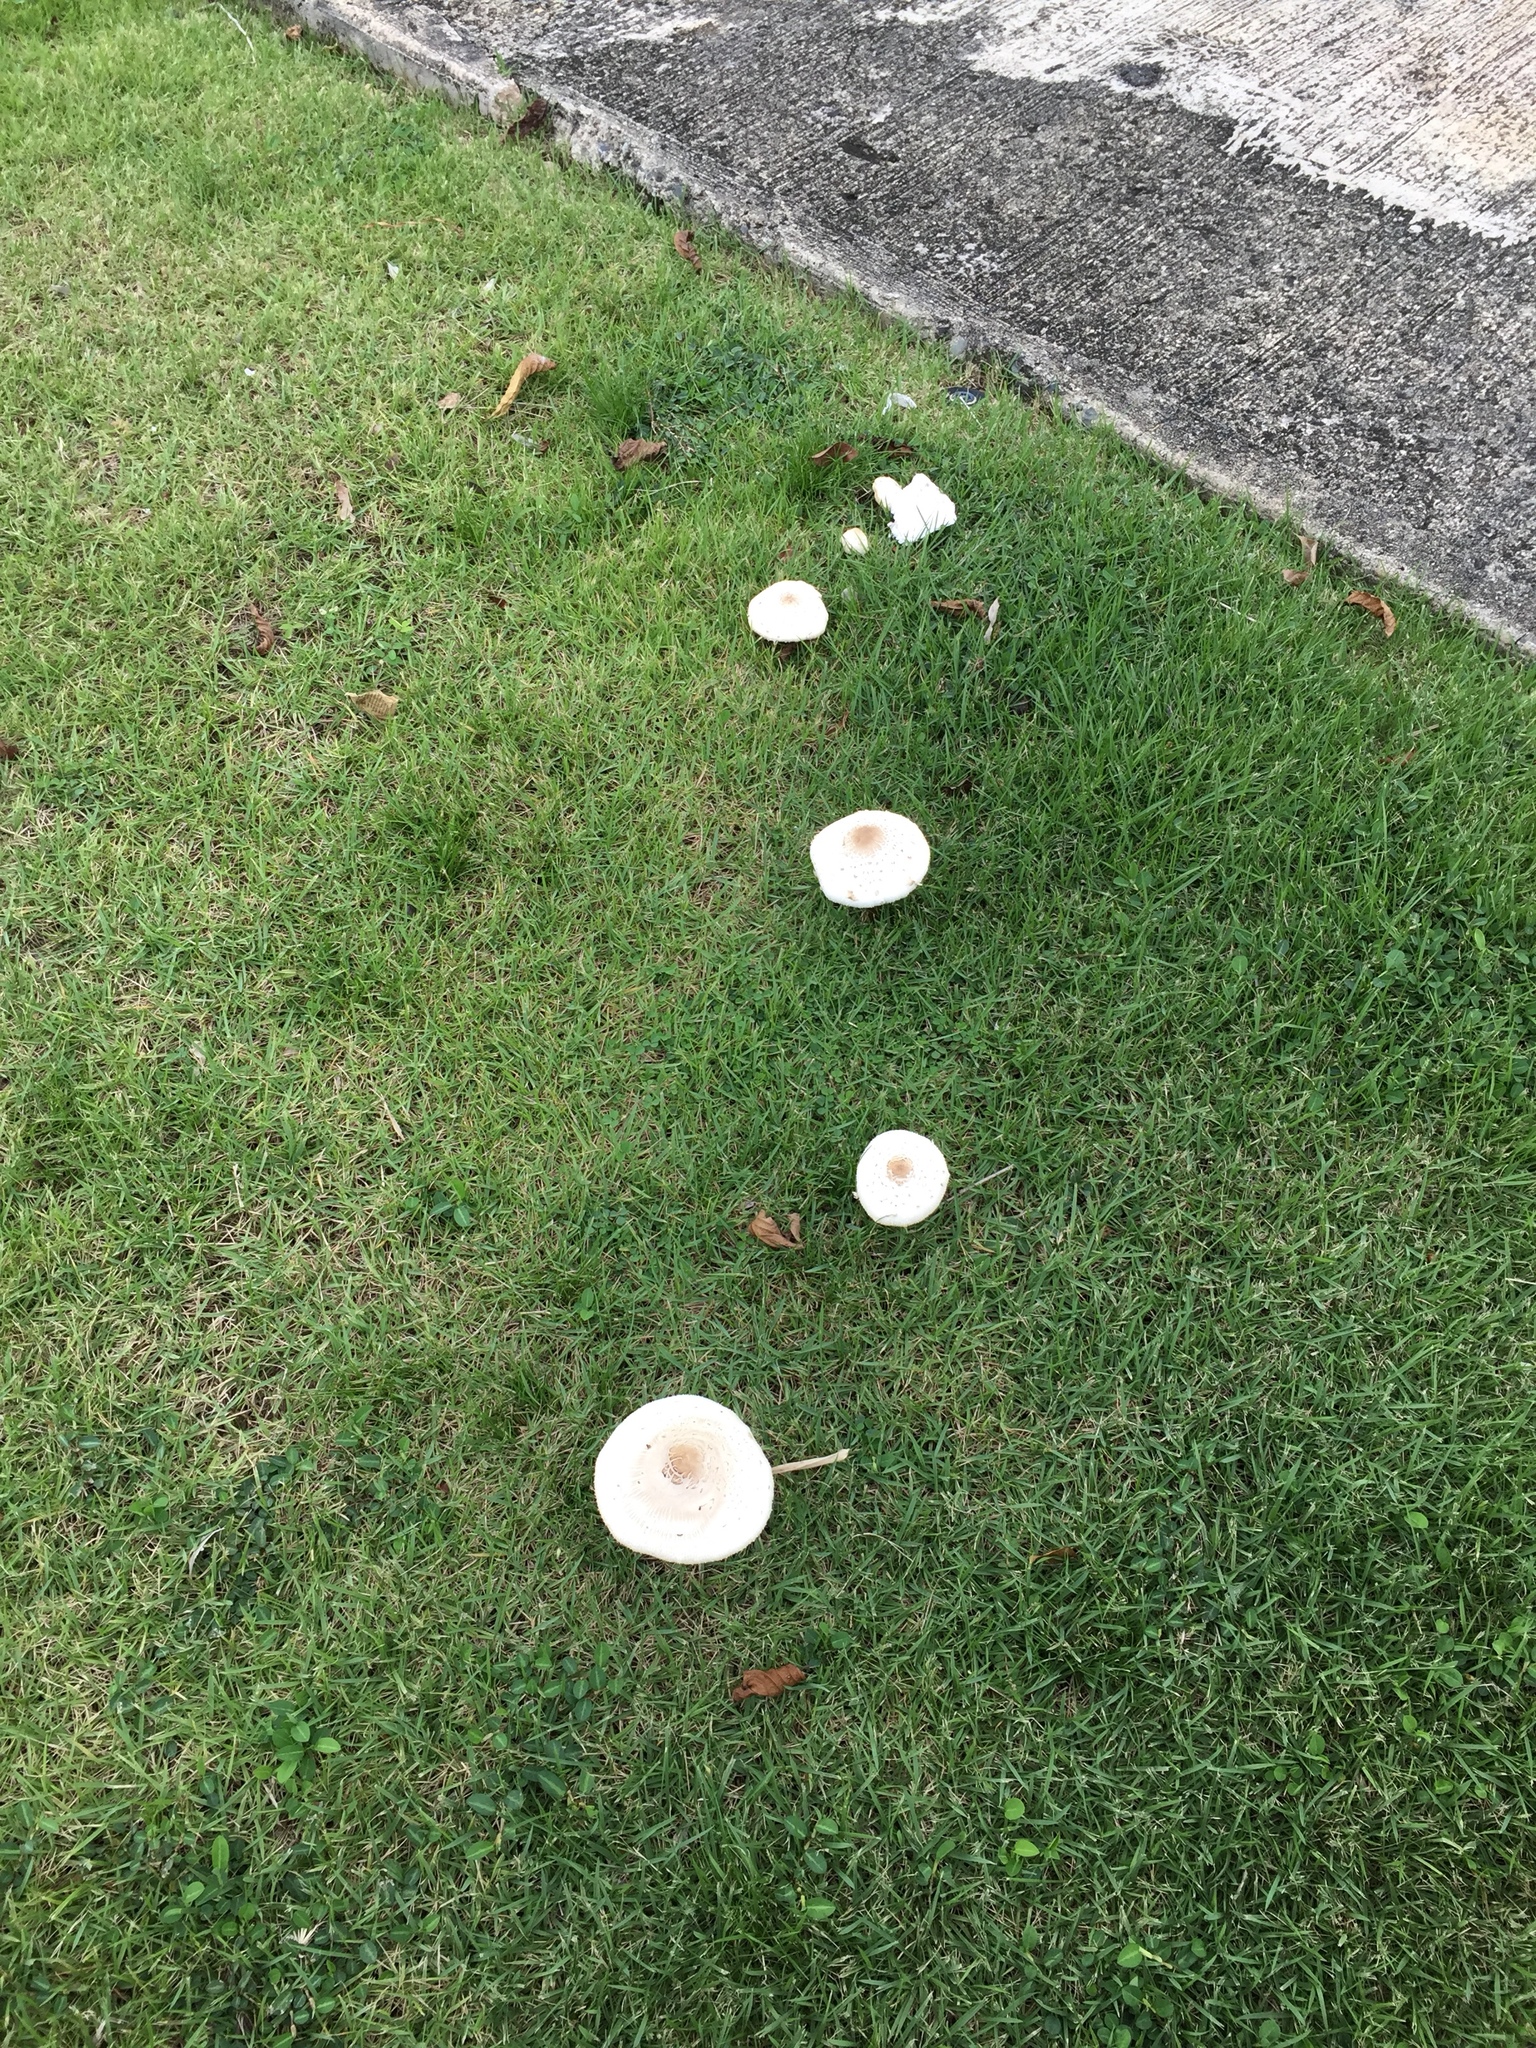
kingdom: Fungi
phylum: Basidiomycota
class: Agaricomycetes
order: Agaricales
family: Agaricaceae
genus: Chlorophyllum
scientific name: Chlorophyllum molybdites
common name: False parasol
